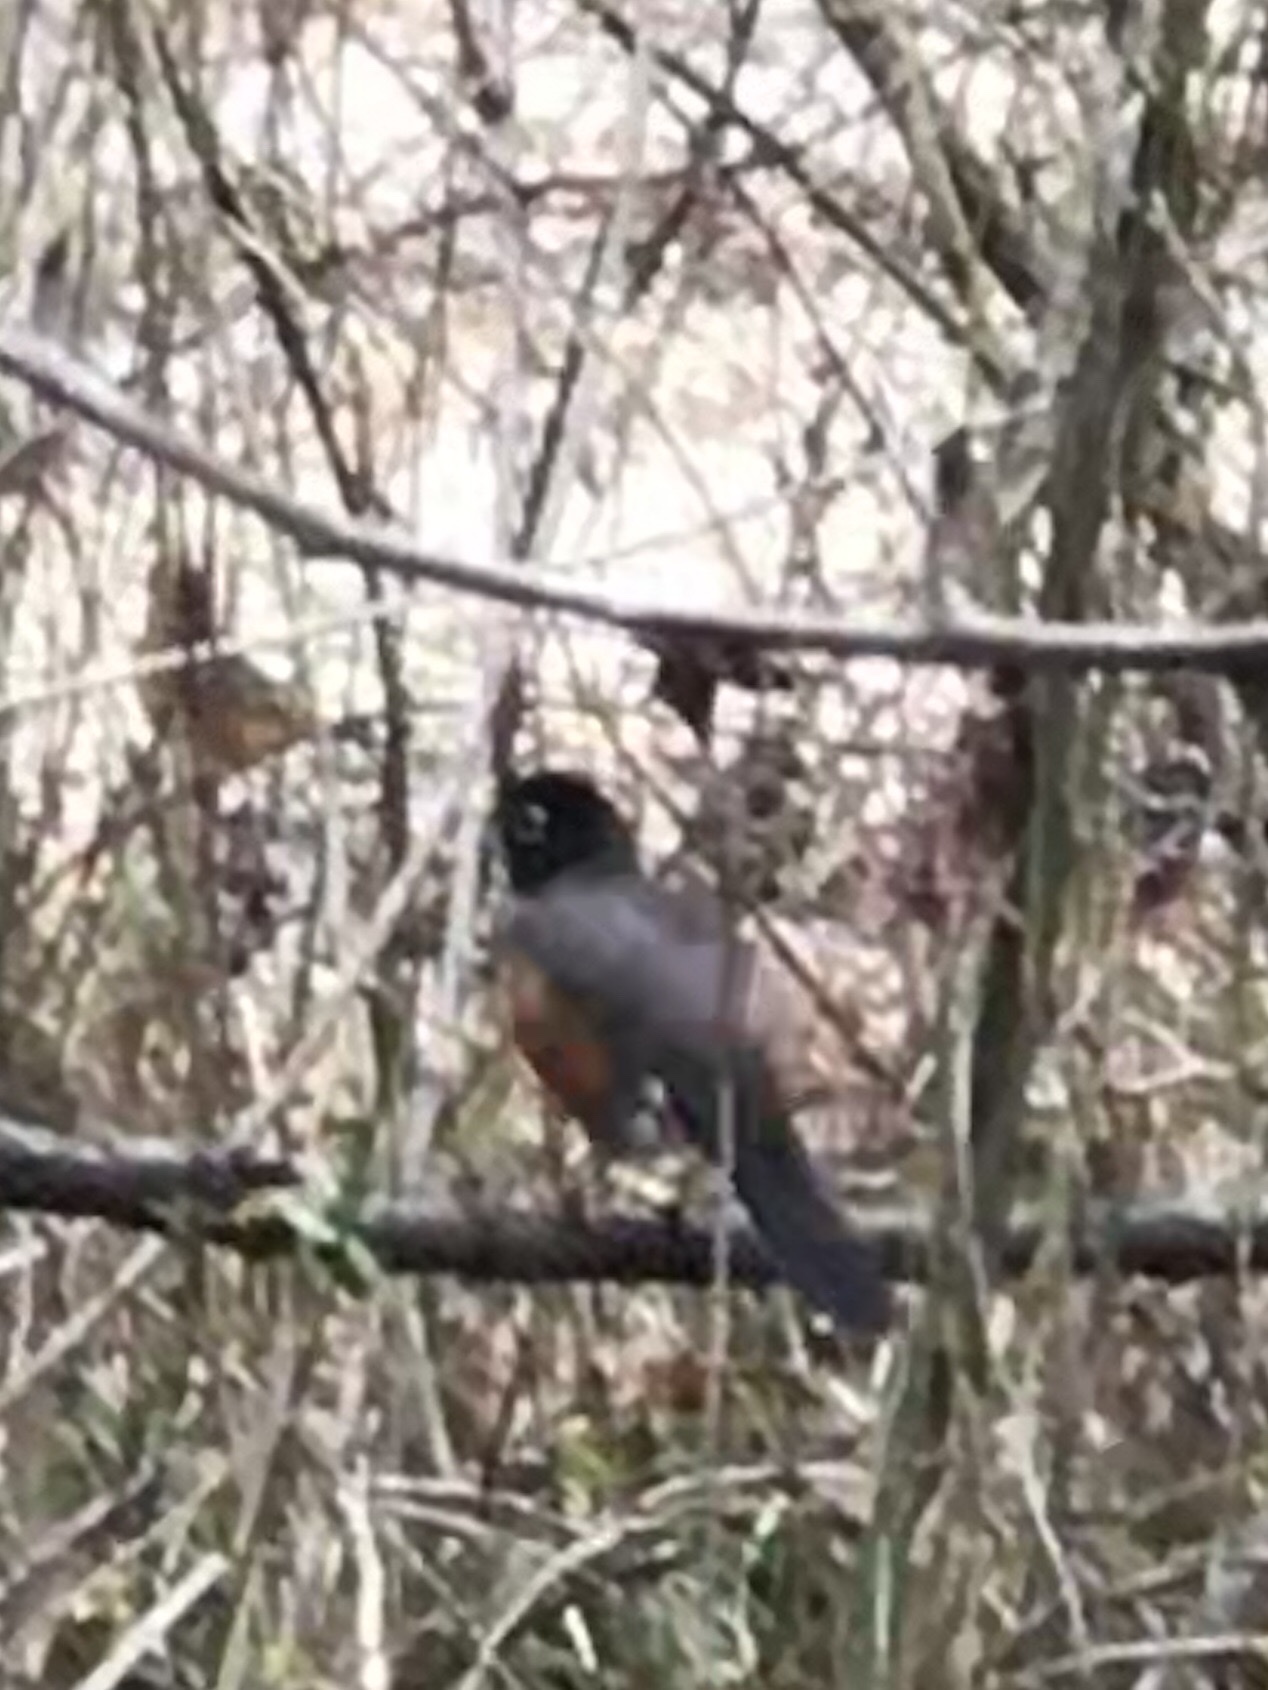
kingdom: Animalia
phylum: Chordata
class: Aves
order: Passeriformes
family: Turdidae
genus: Turdus
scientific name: Turdus migratorius
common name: American robin
